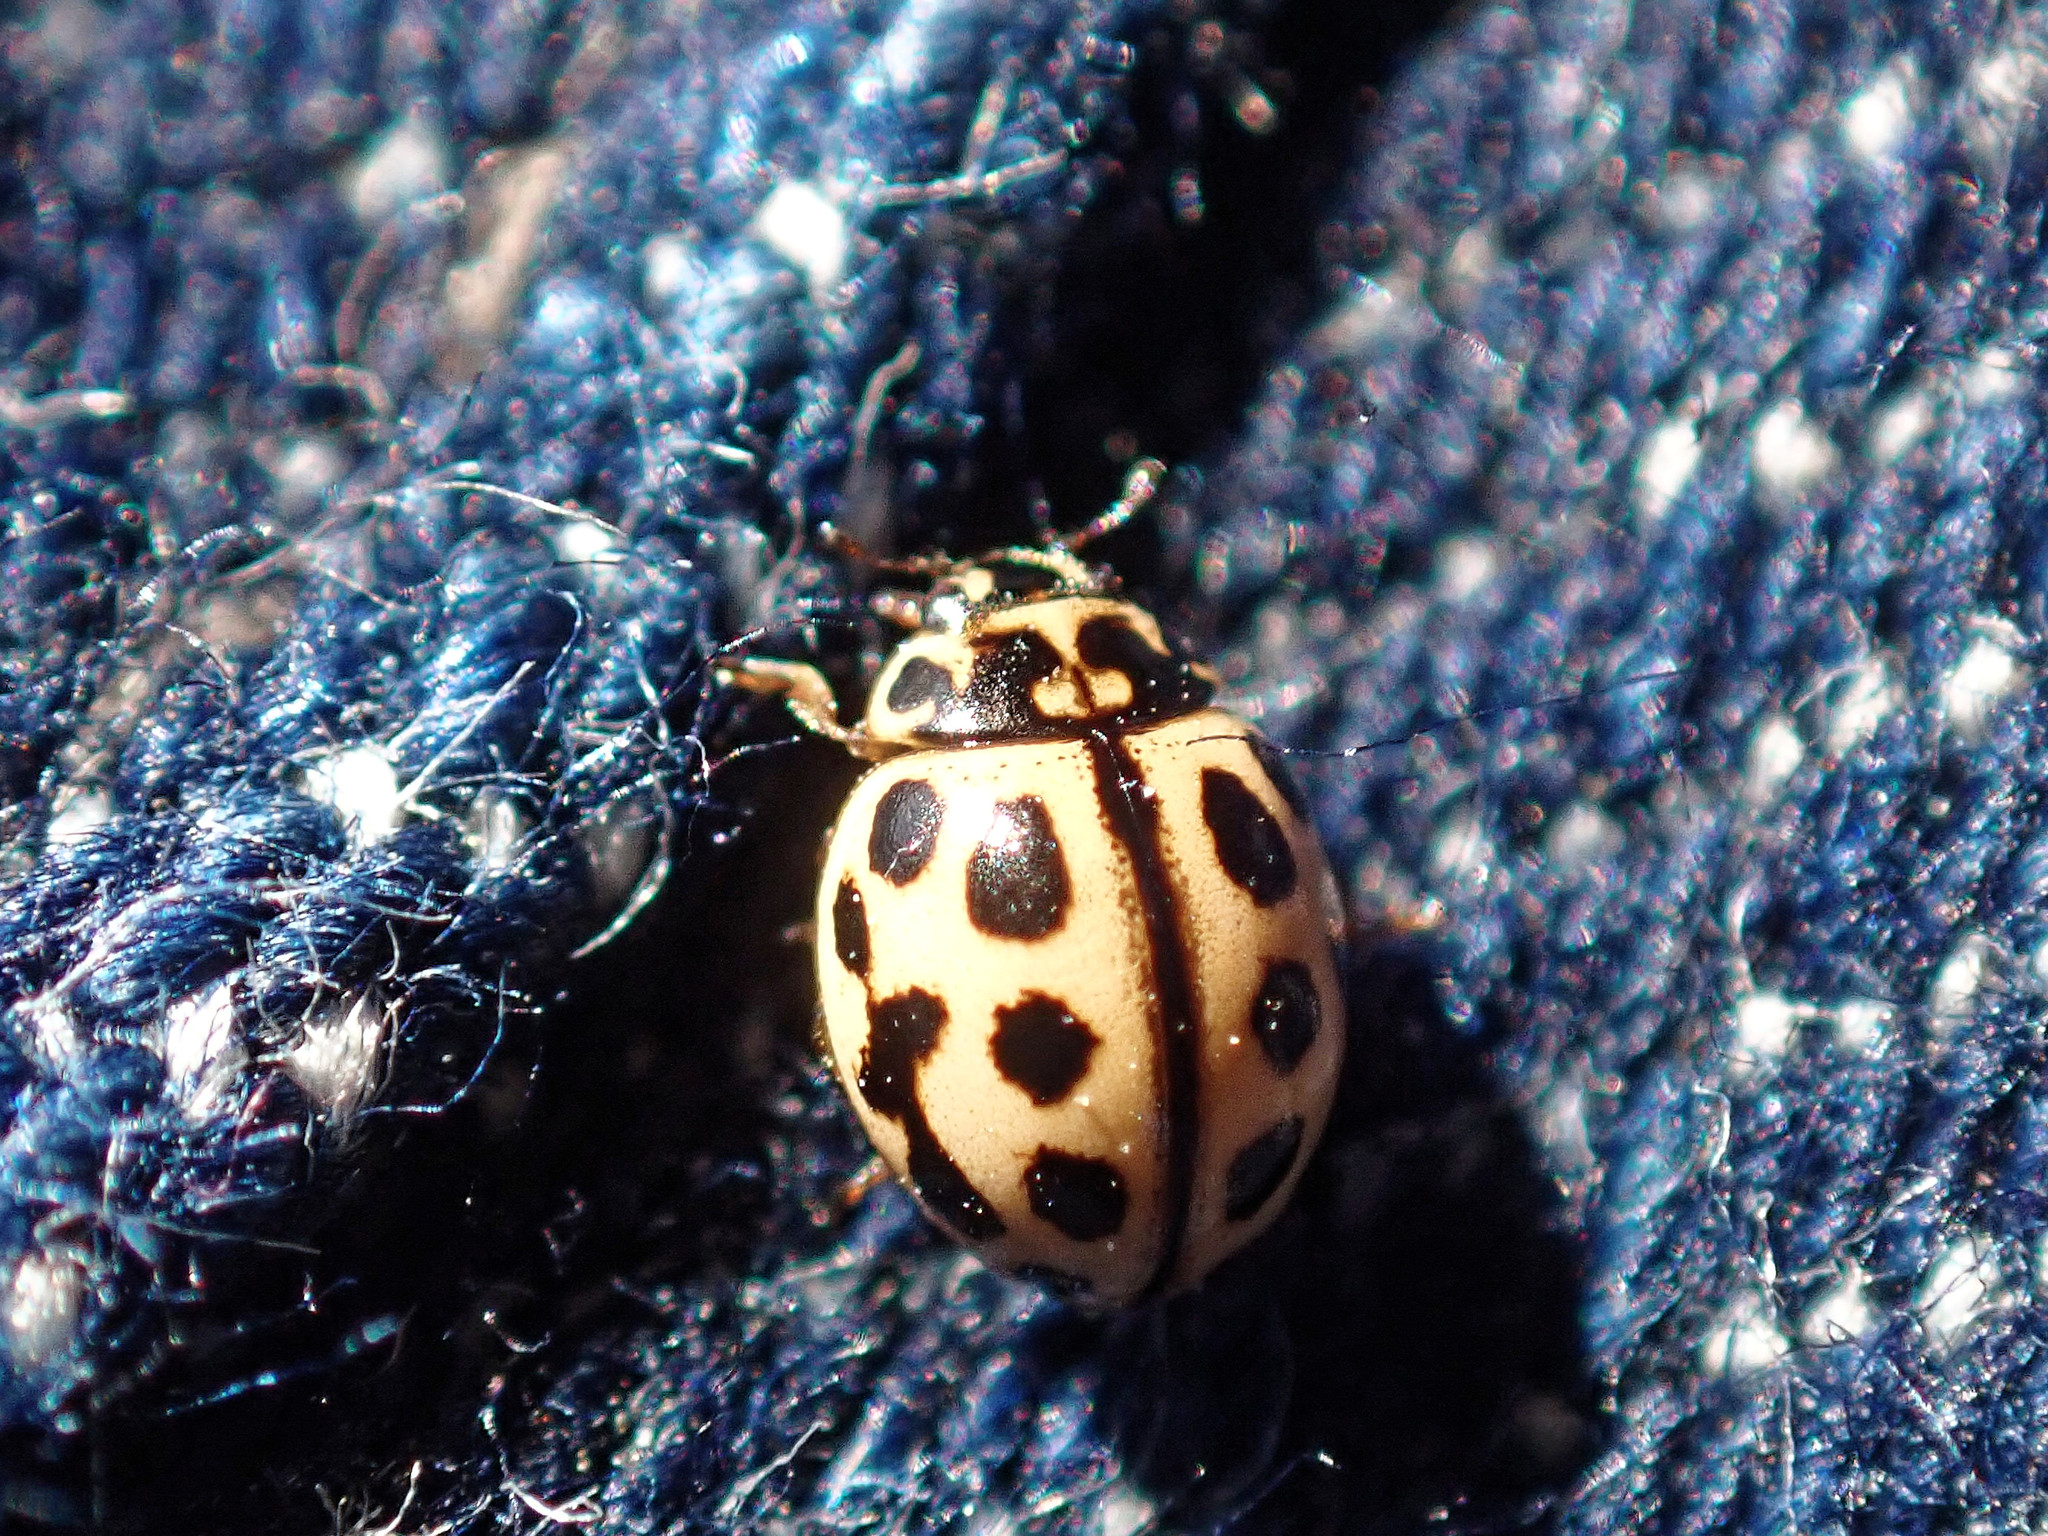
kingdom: Animalia
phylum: Arthropoda
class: Insecta
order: Coleoptera
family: Coccinellidae
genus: Tytthaspis
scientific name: Tytthaspis sedecimpunctata
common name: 16-spot ladybird
